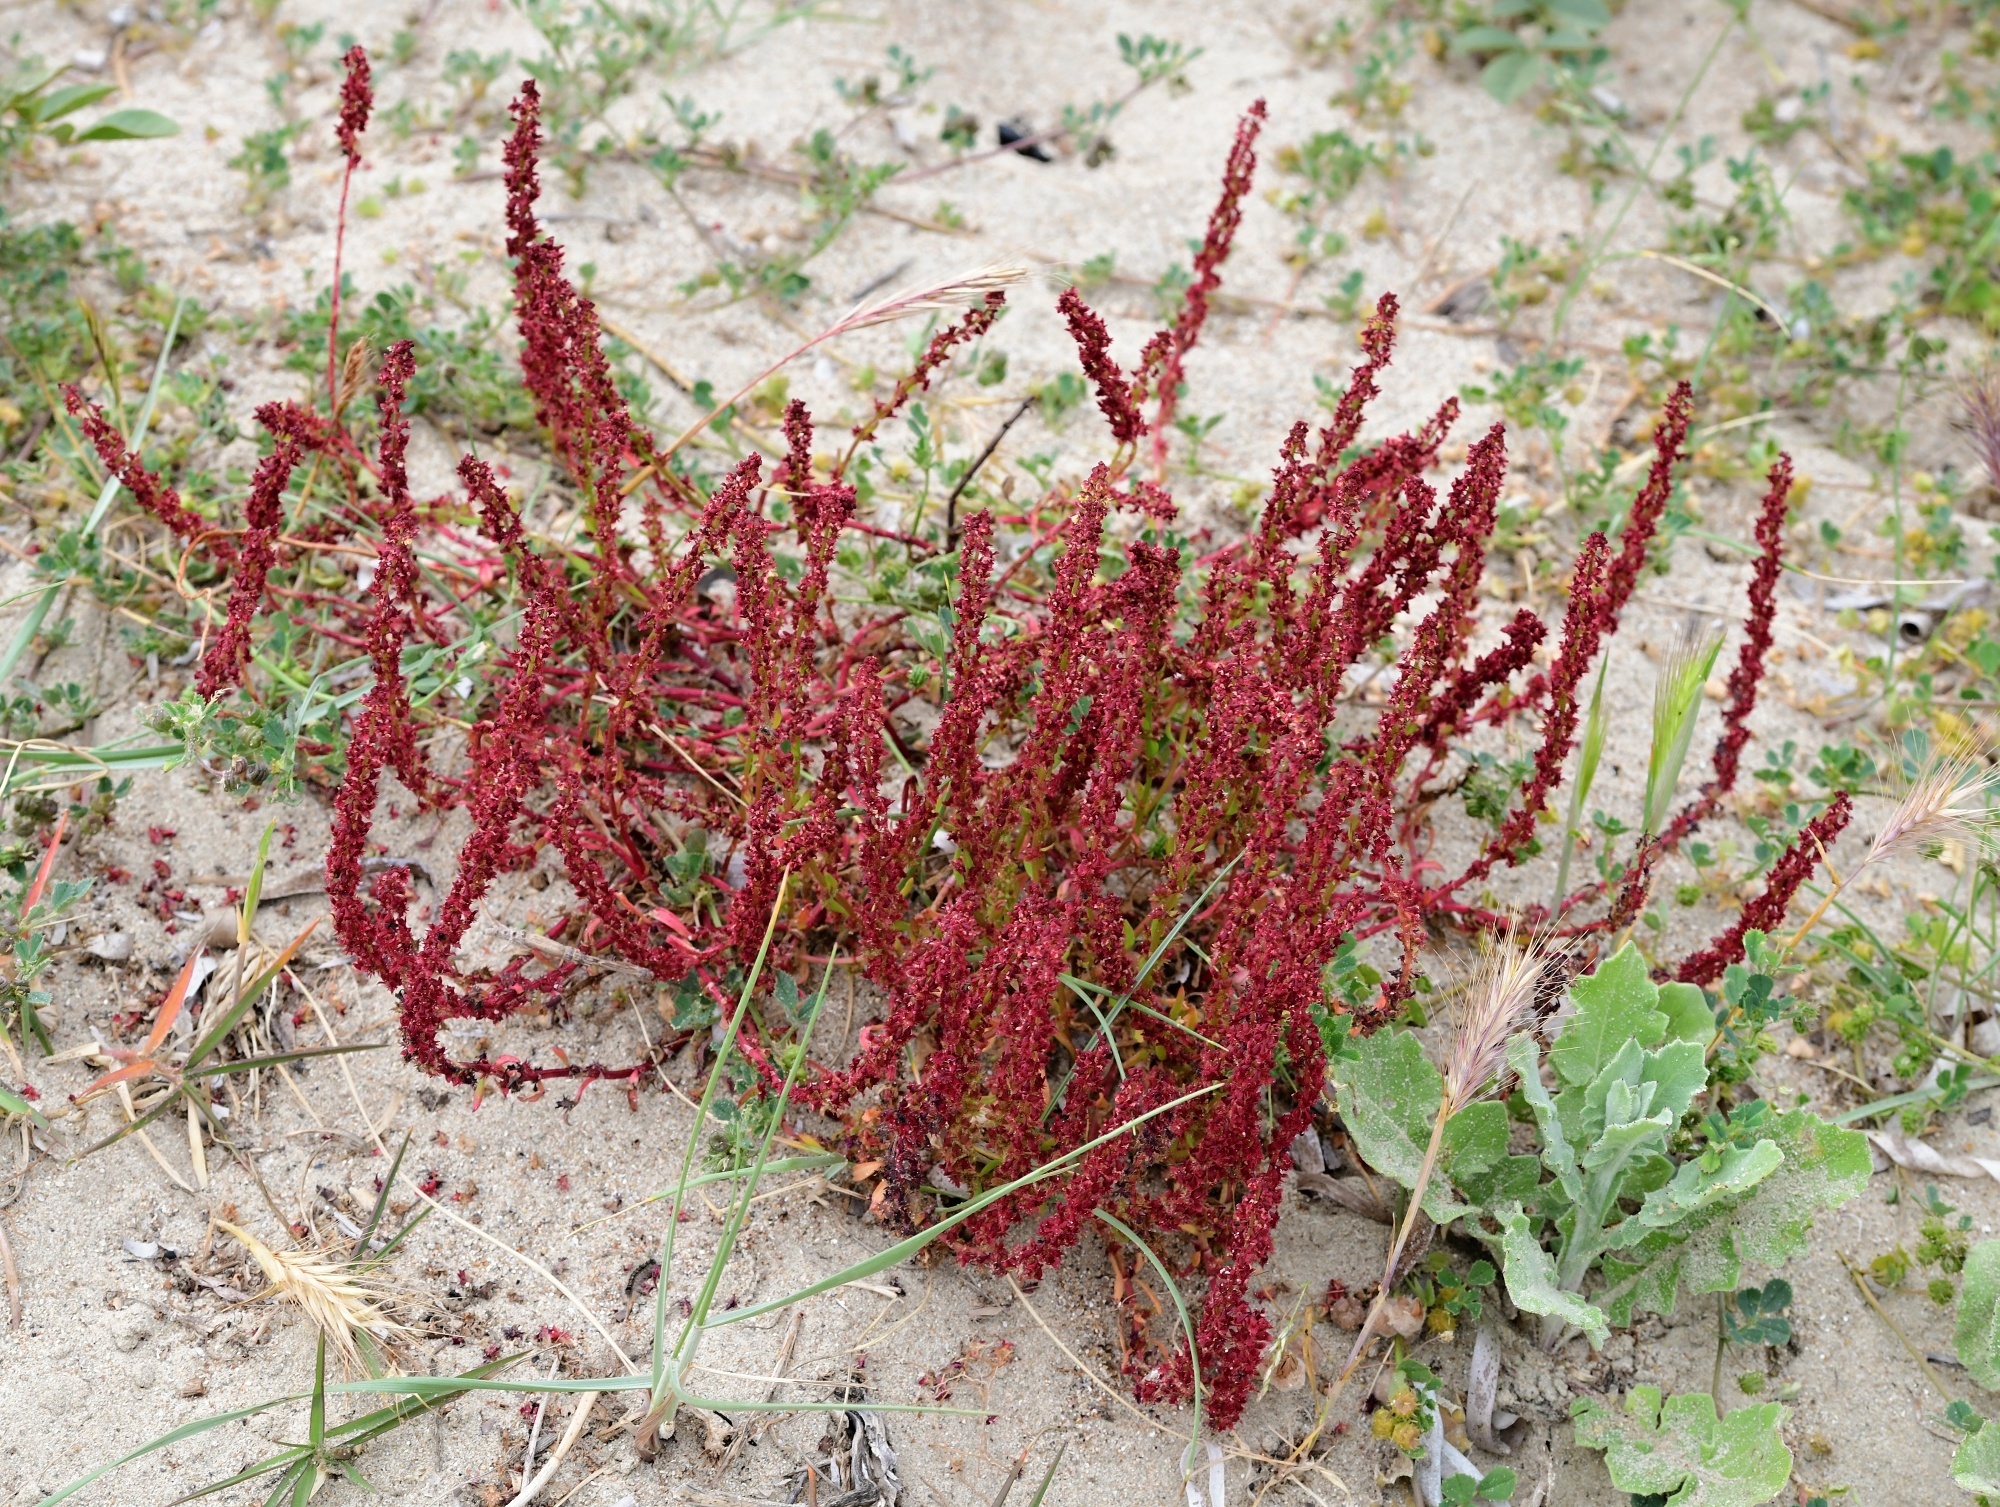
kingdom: Plantae
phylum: Tracheophyta
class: Magnoliopsida
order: Caryophyllales
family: Polygonaceae
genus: Rumex
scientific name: Rumex bucephalophorus
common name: Red dock
